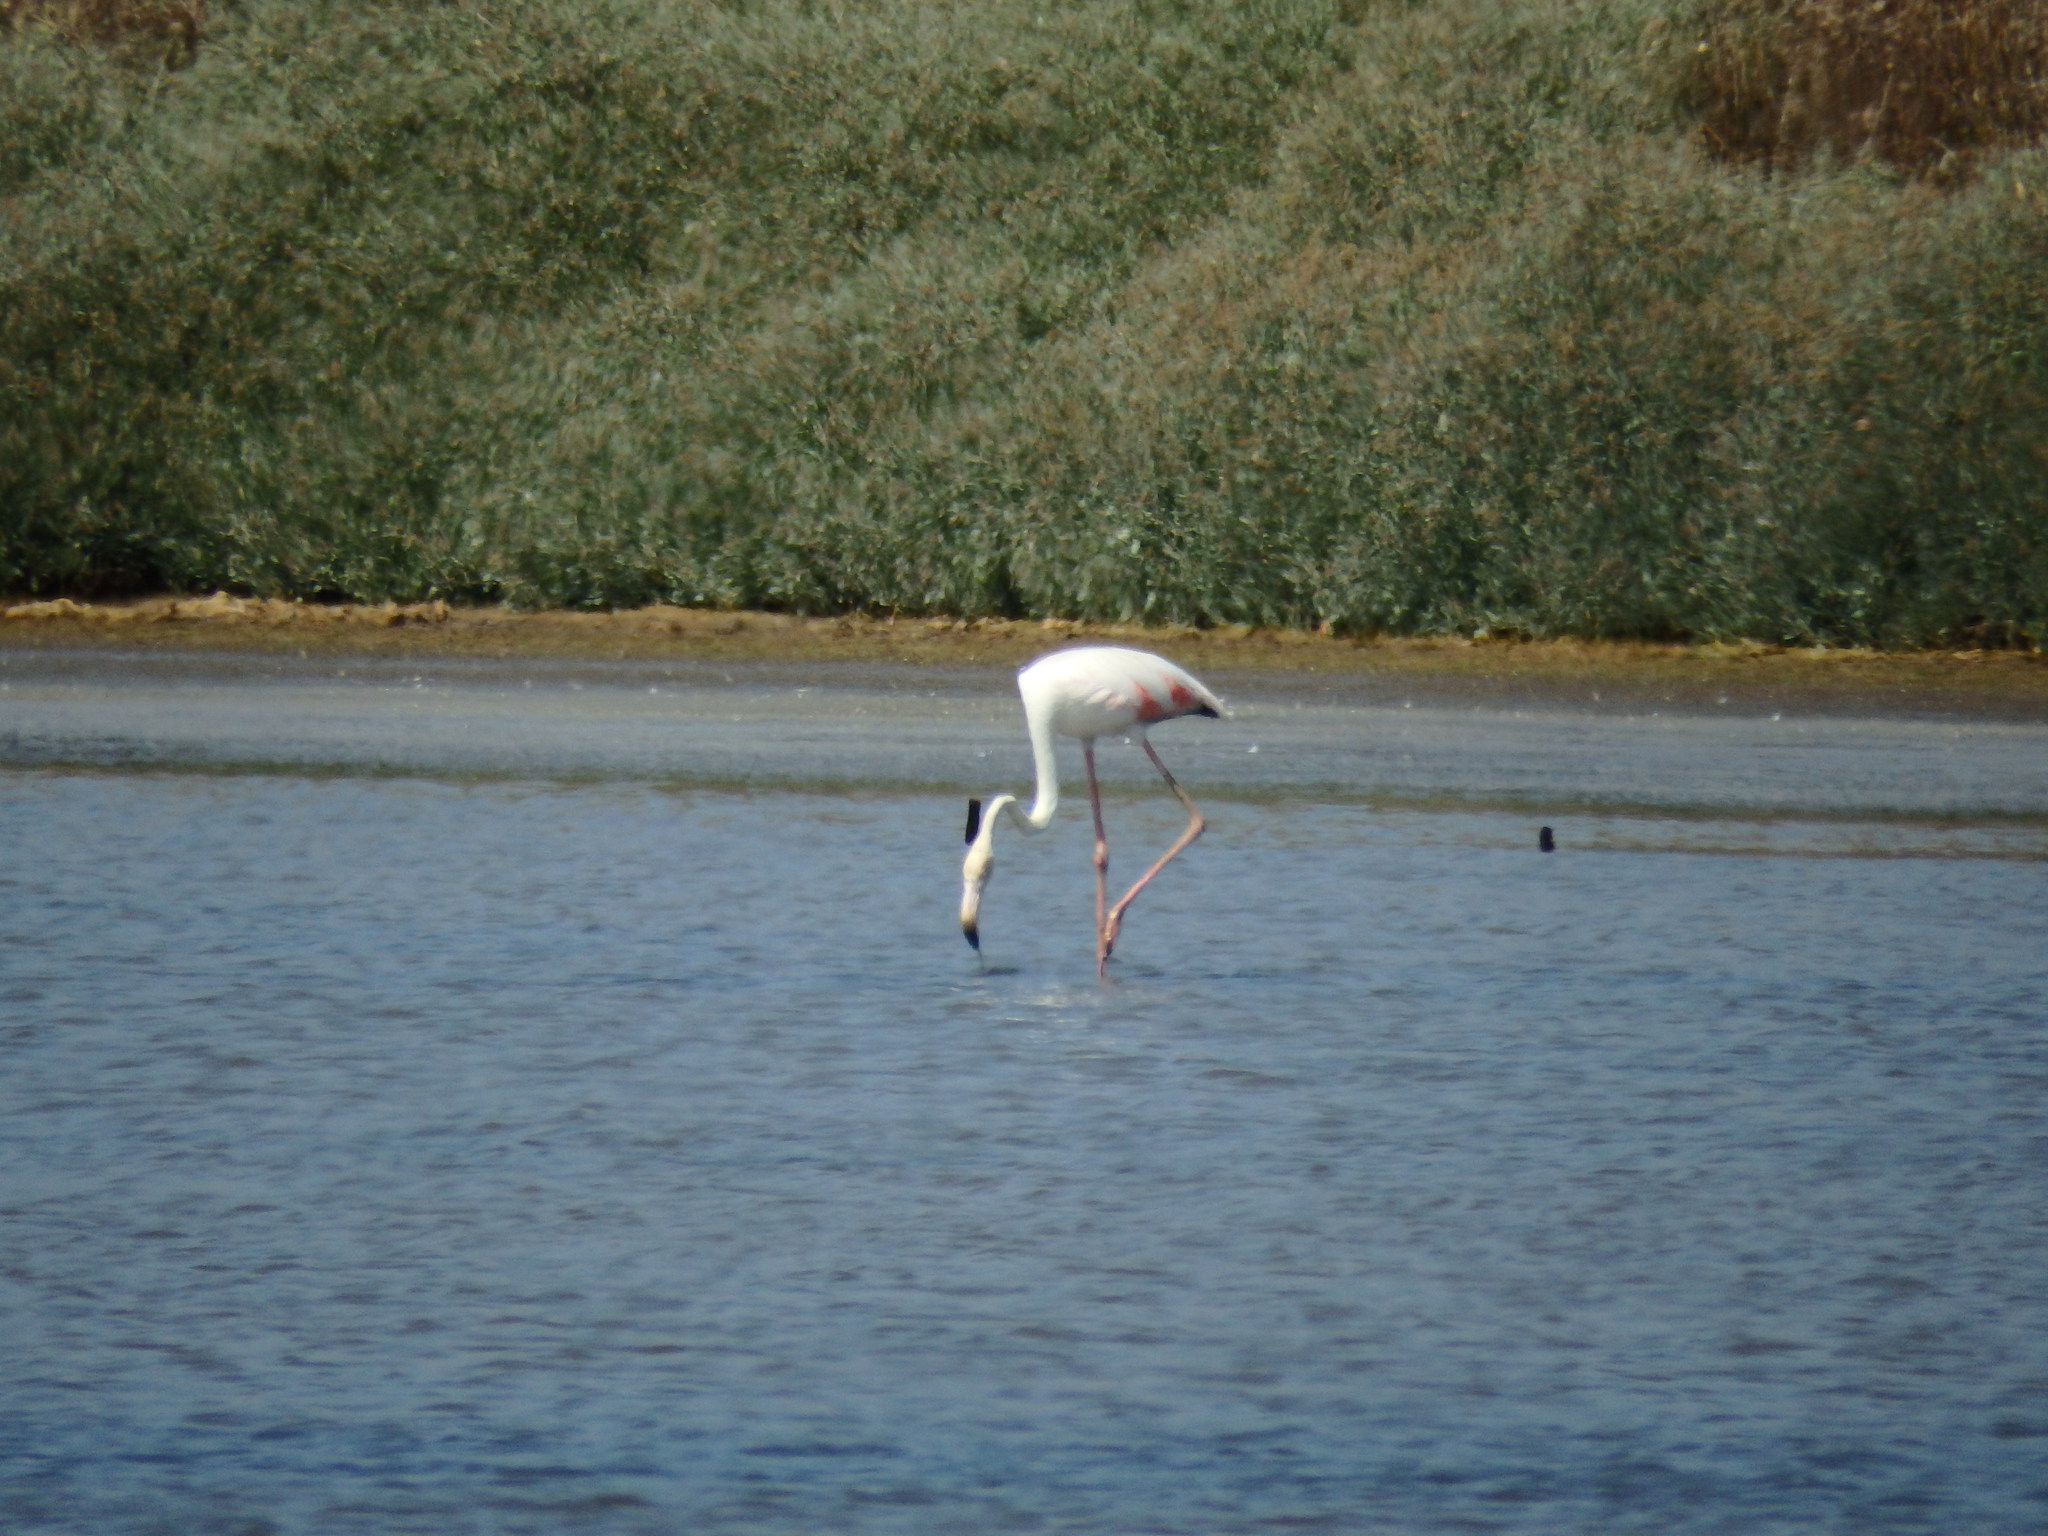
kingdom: Animalia
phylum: Chordata
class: Aves
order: Phoenicopteriformes
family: Phoenicopteridae
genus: Phoenicopterus
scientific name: Phoenicopterus roseus
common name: Greater flamingo
